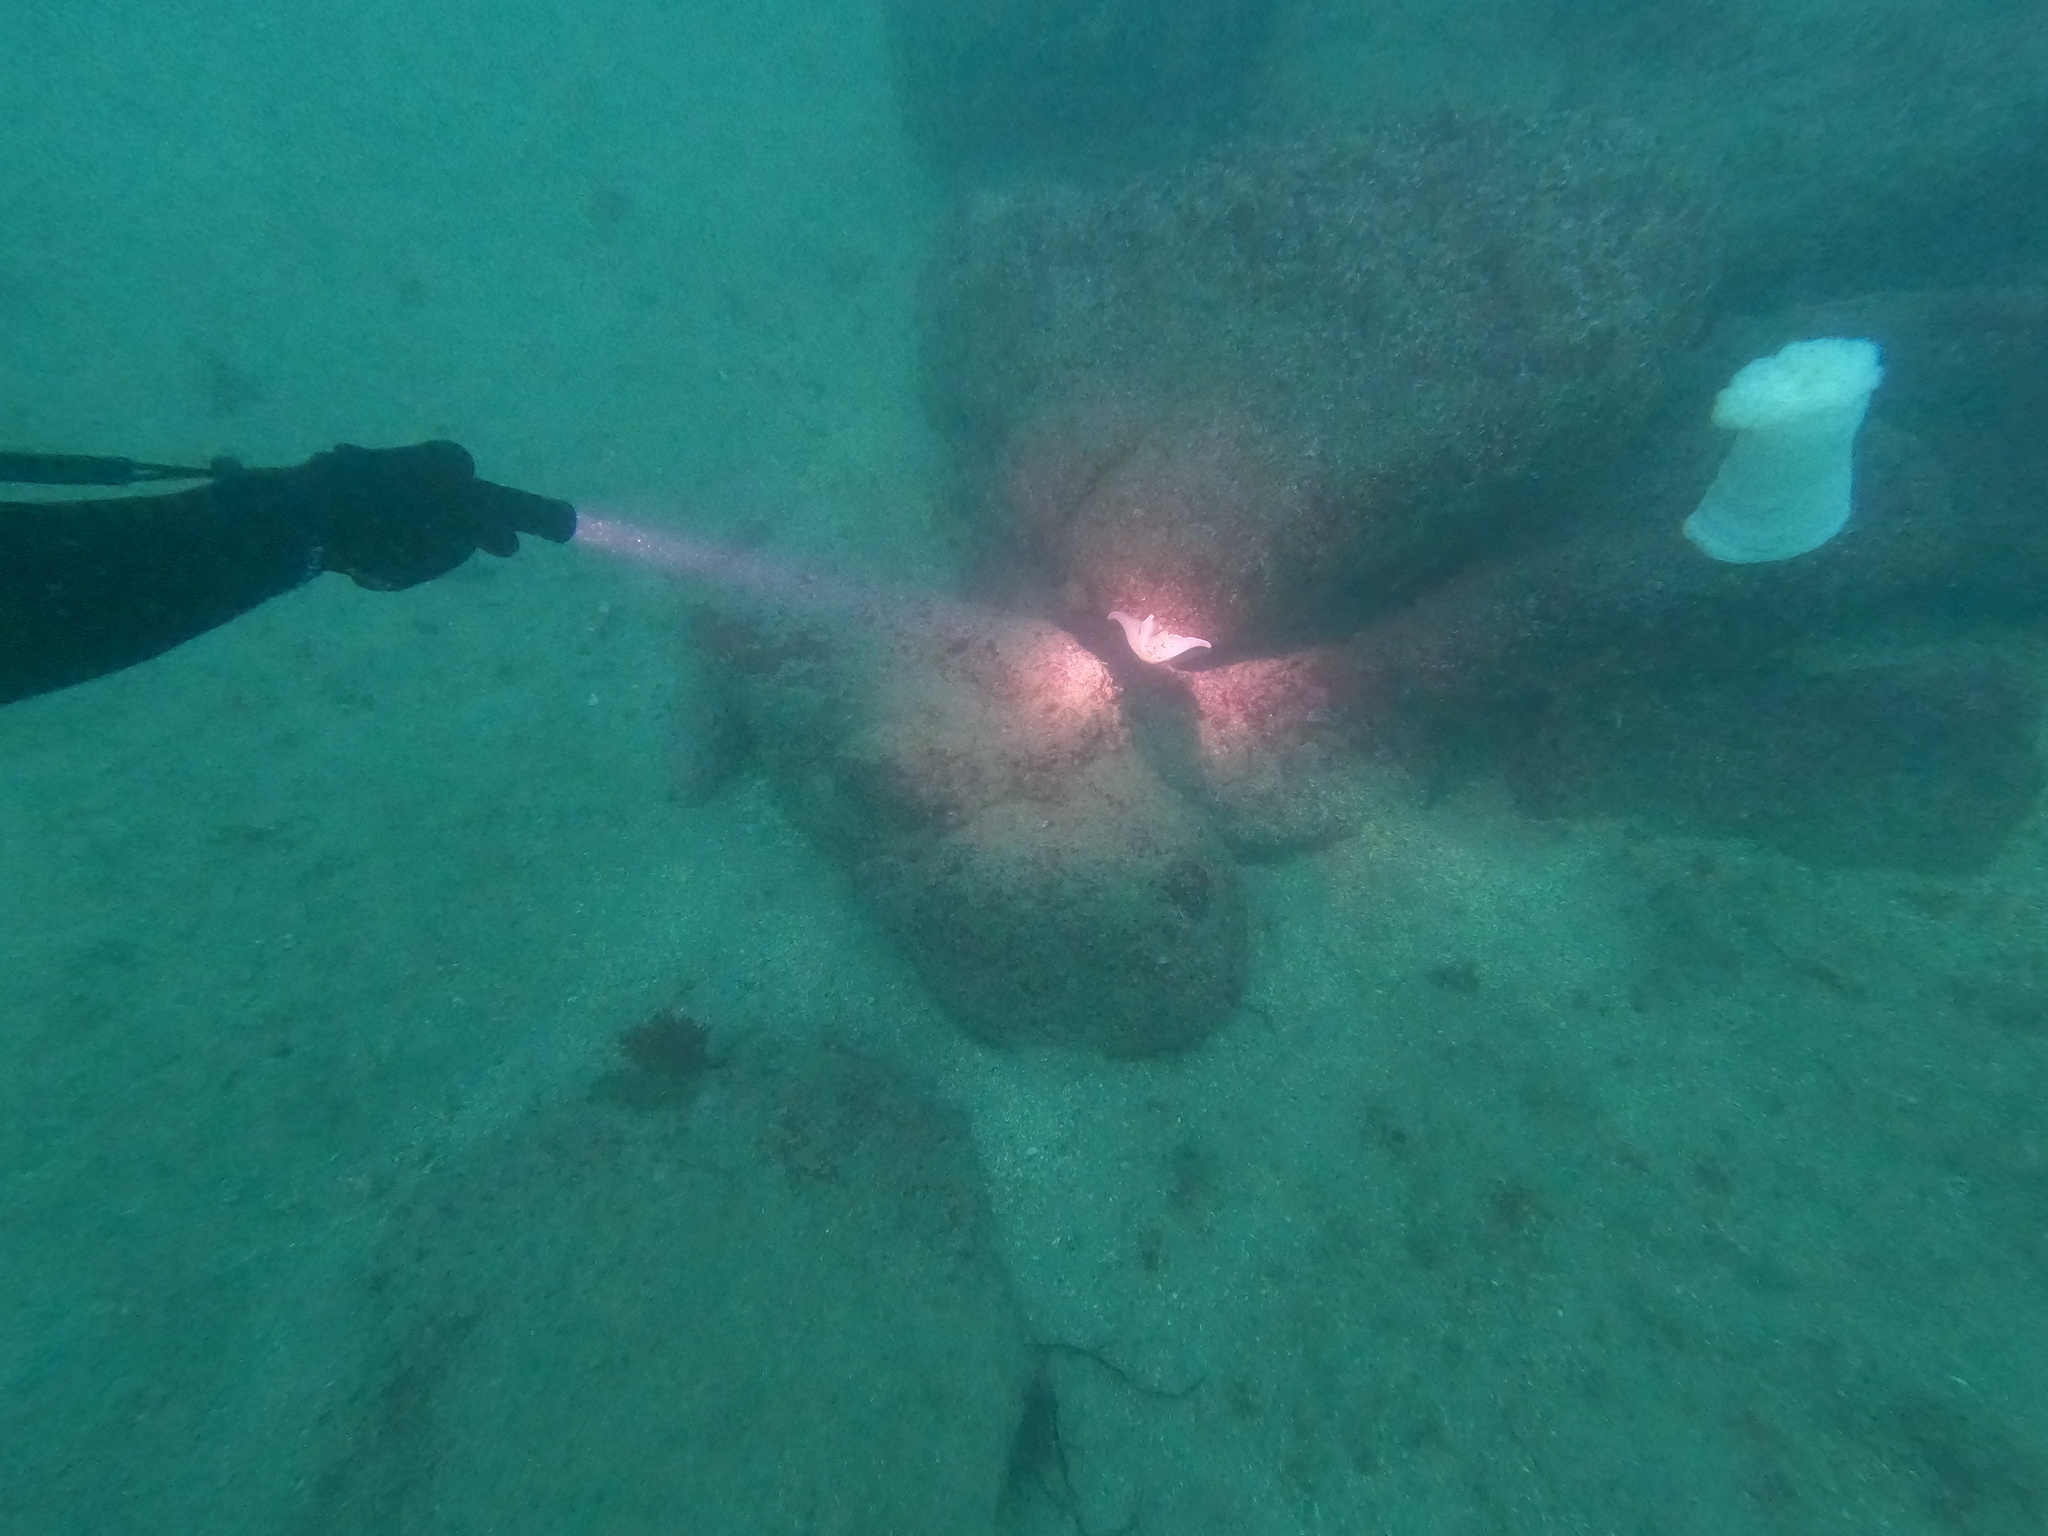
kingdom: Animalia
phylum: Cnidaria
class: Anthozoa
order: Actiniaria
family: Metridiidae
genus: Metridium
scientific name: Metridium farcimen
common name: Gigantic anemone
